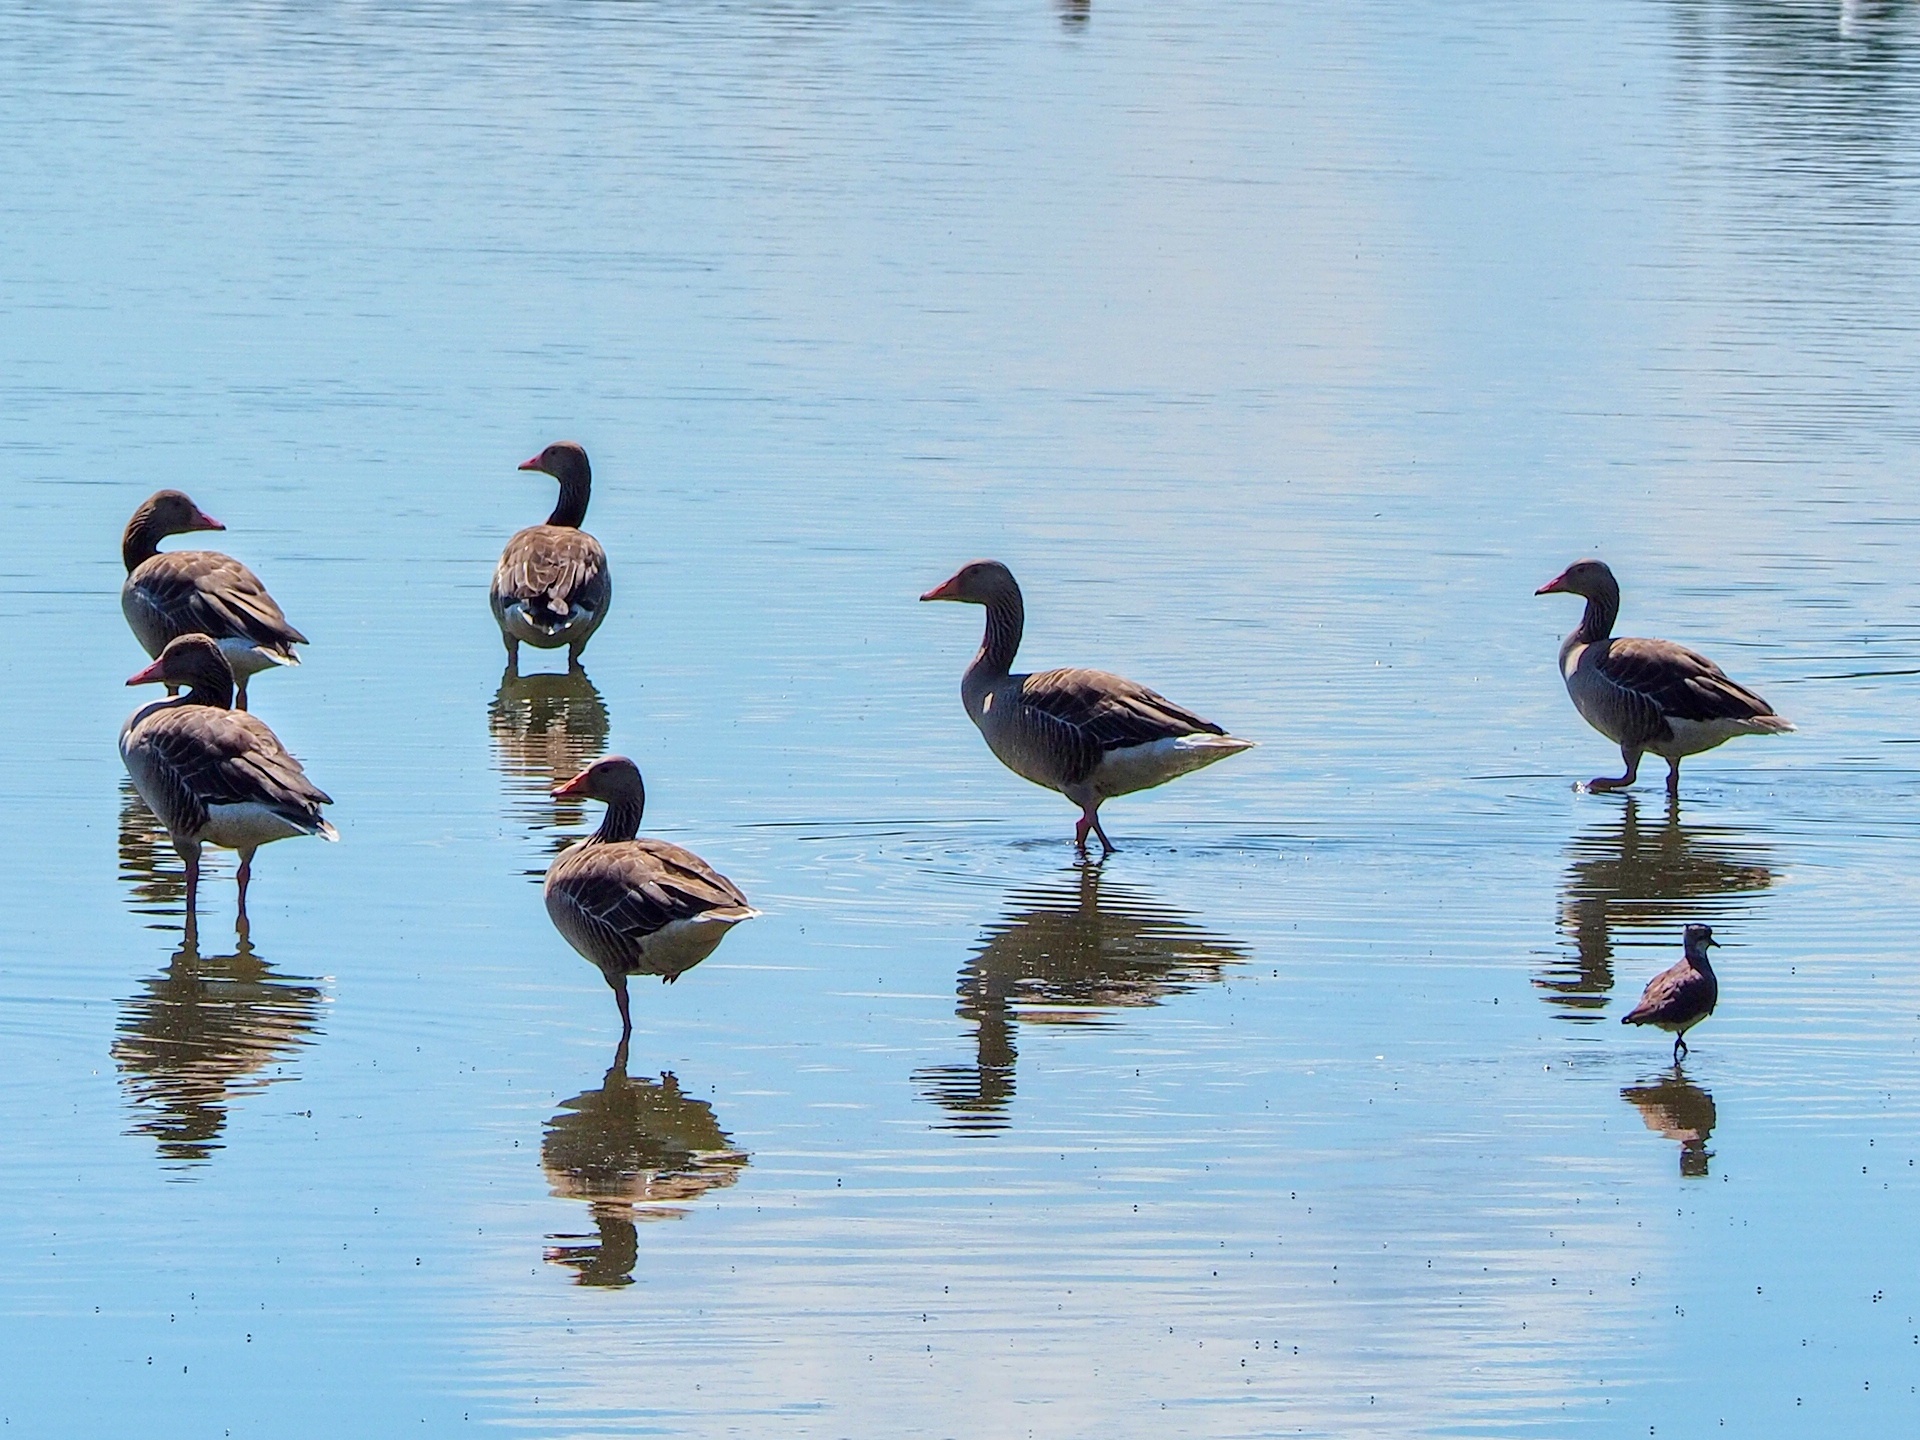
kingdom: Animalia
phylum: Chordata
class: Aves
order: Anseriformes
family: Anatidae
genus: Anser
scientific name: Anser anser
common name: Greylag goose
